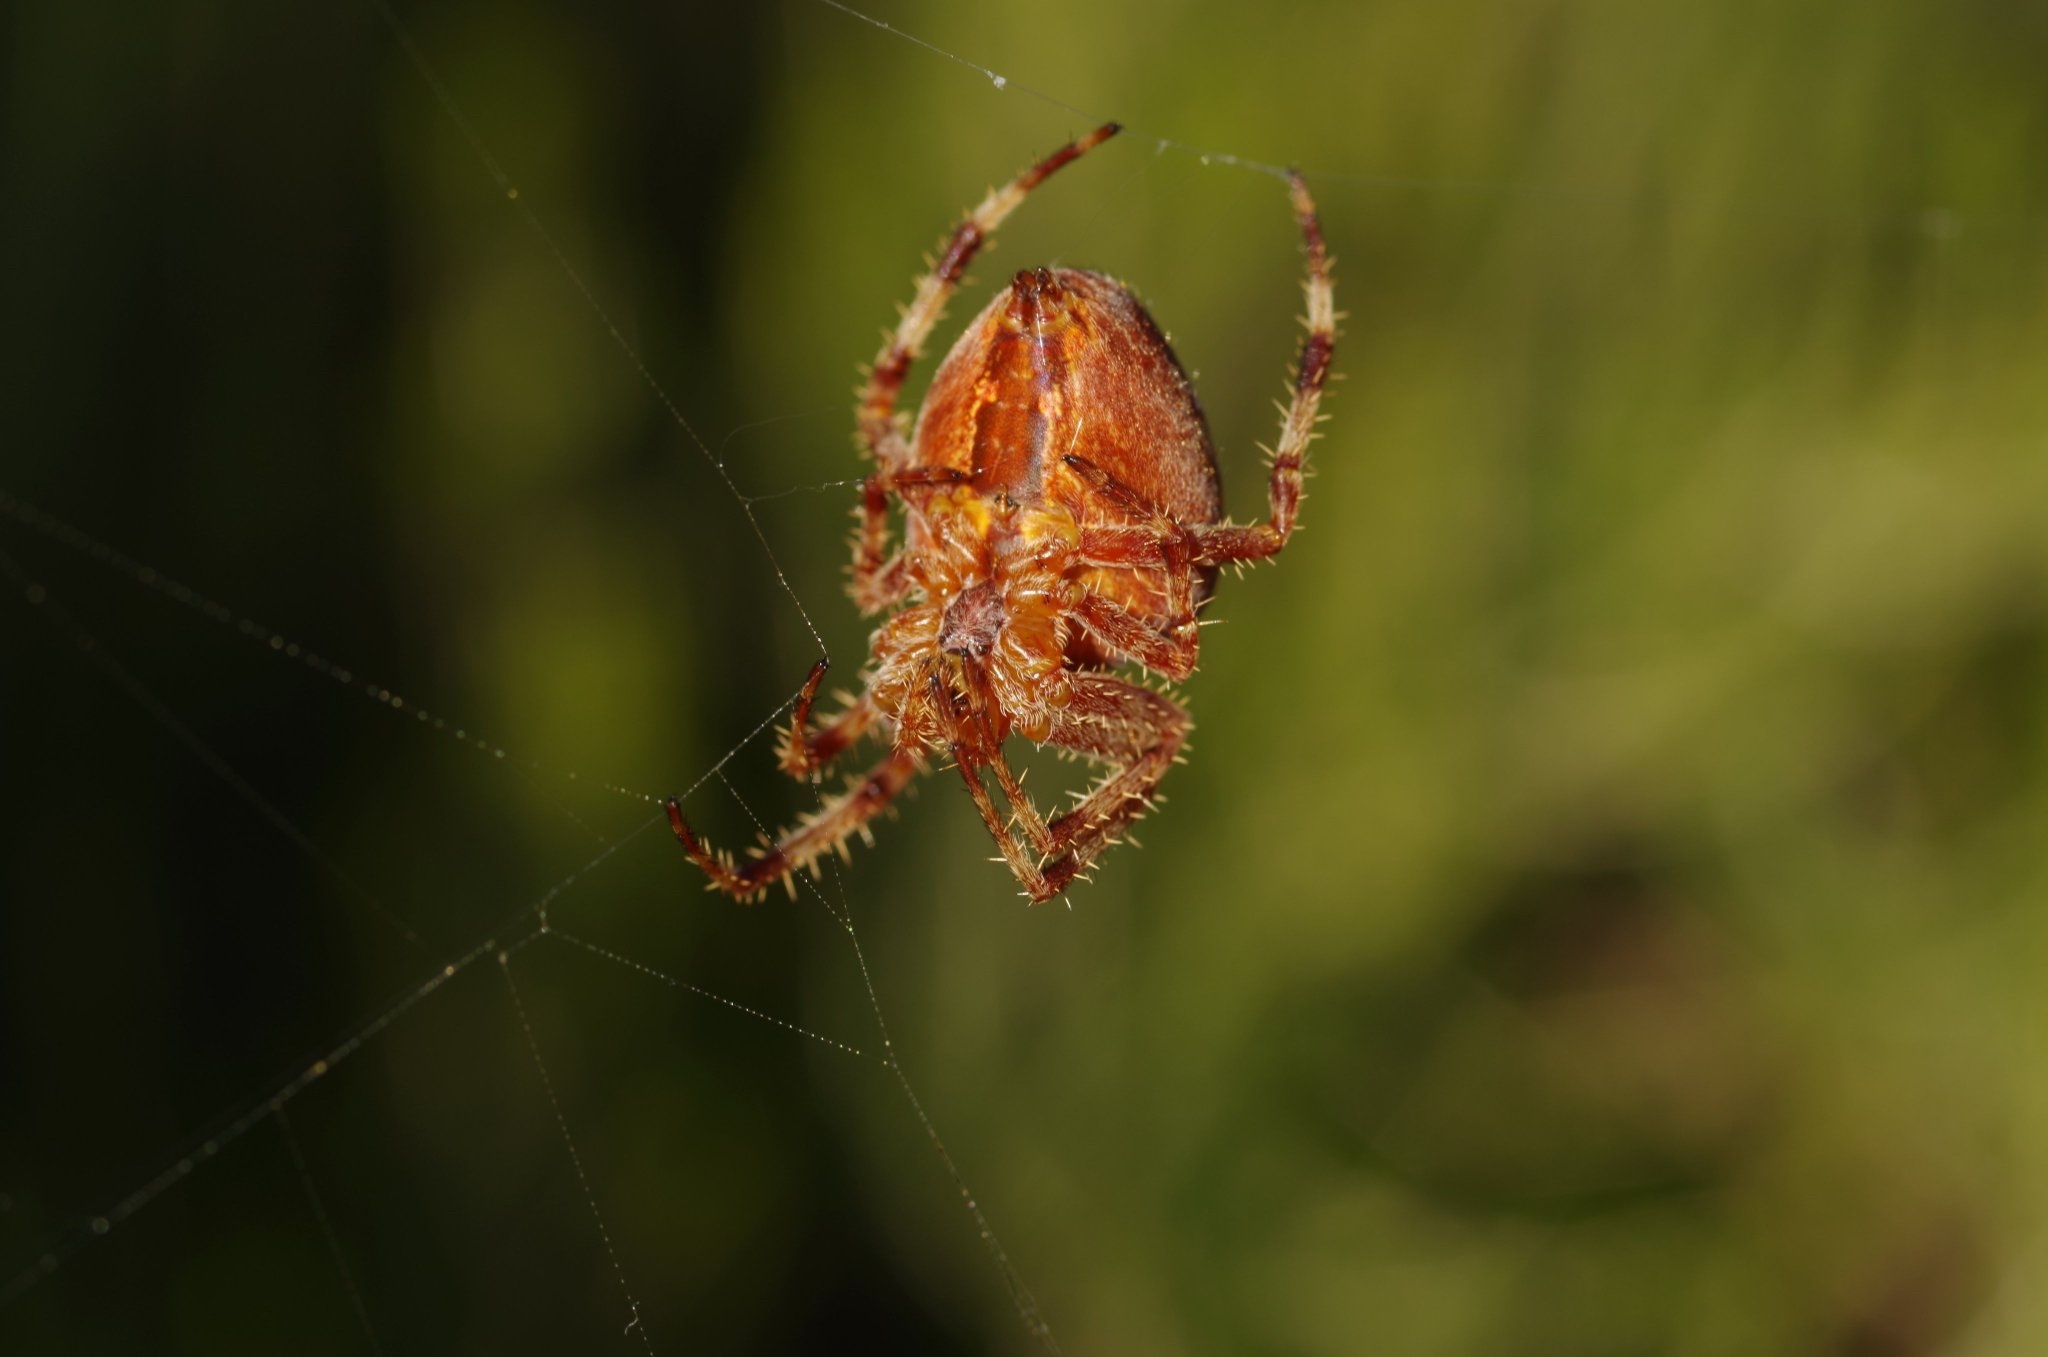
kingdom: Animalia
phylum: Arthropoda
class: Arachnida
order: Araneae
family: Araneidae
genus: Araneus
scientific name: Araneus diadematus
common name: Cross orbweaver
